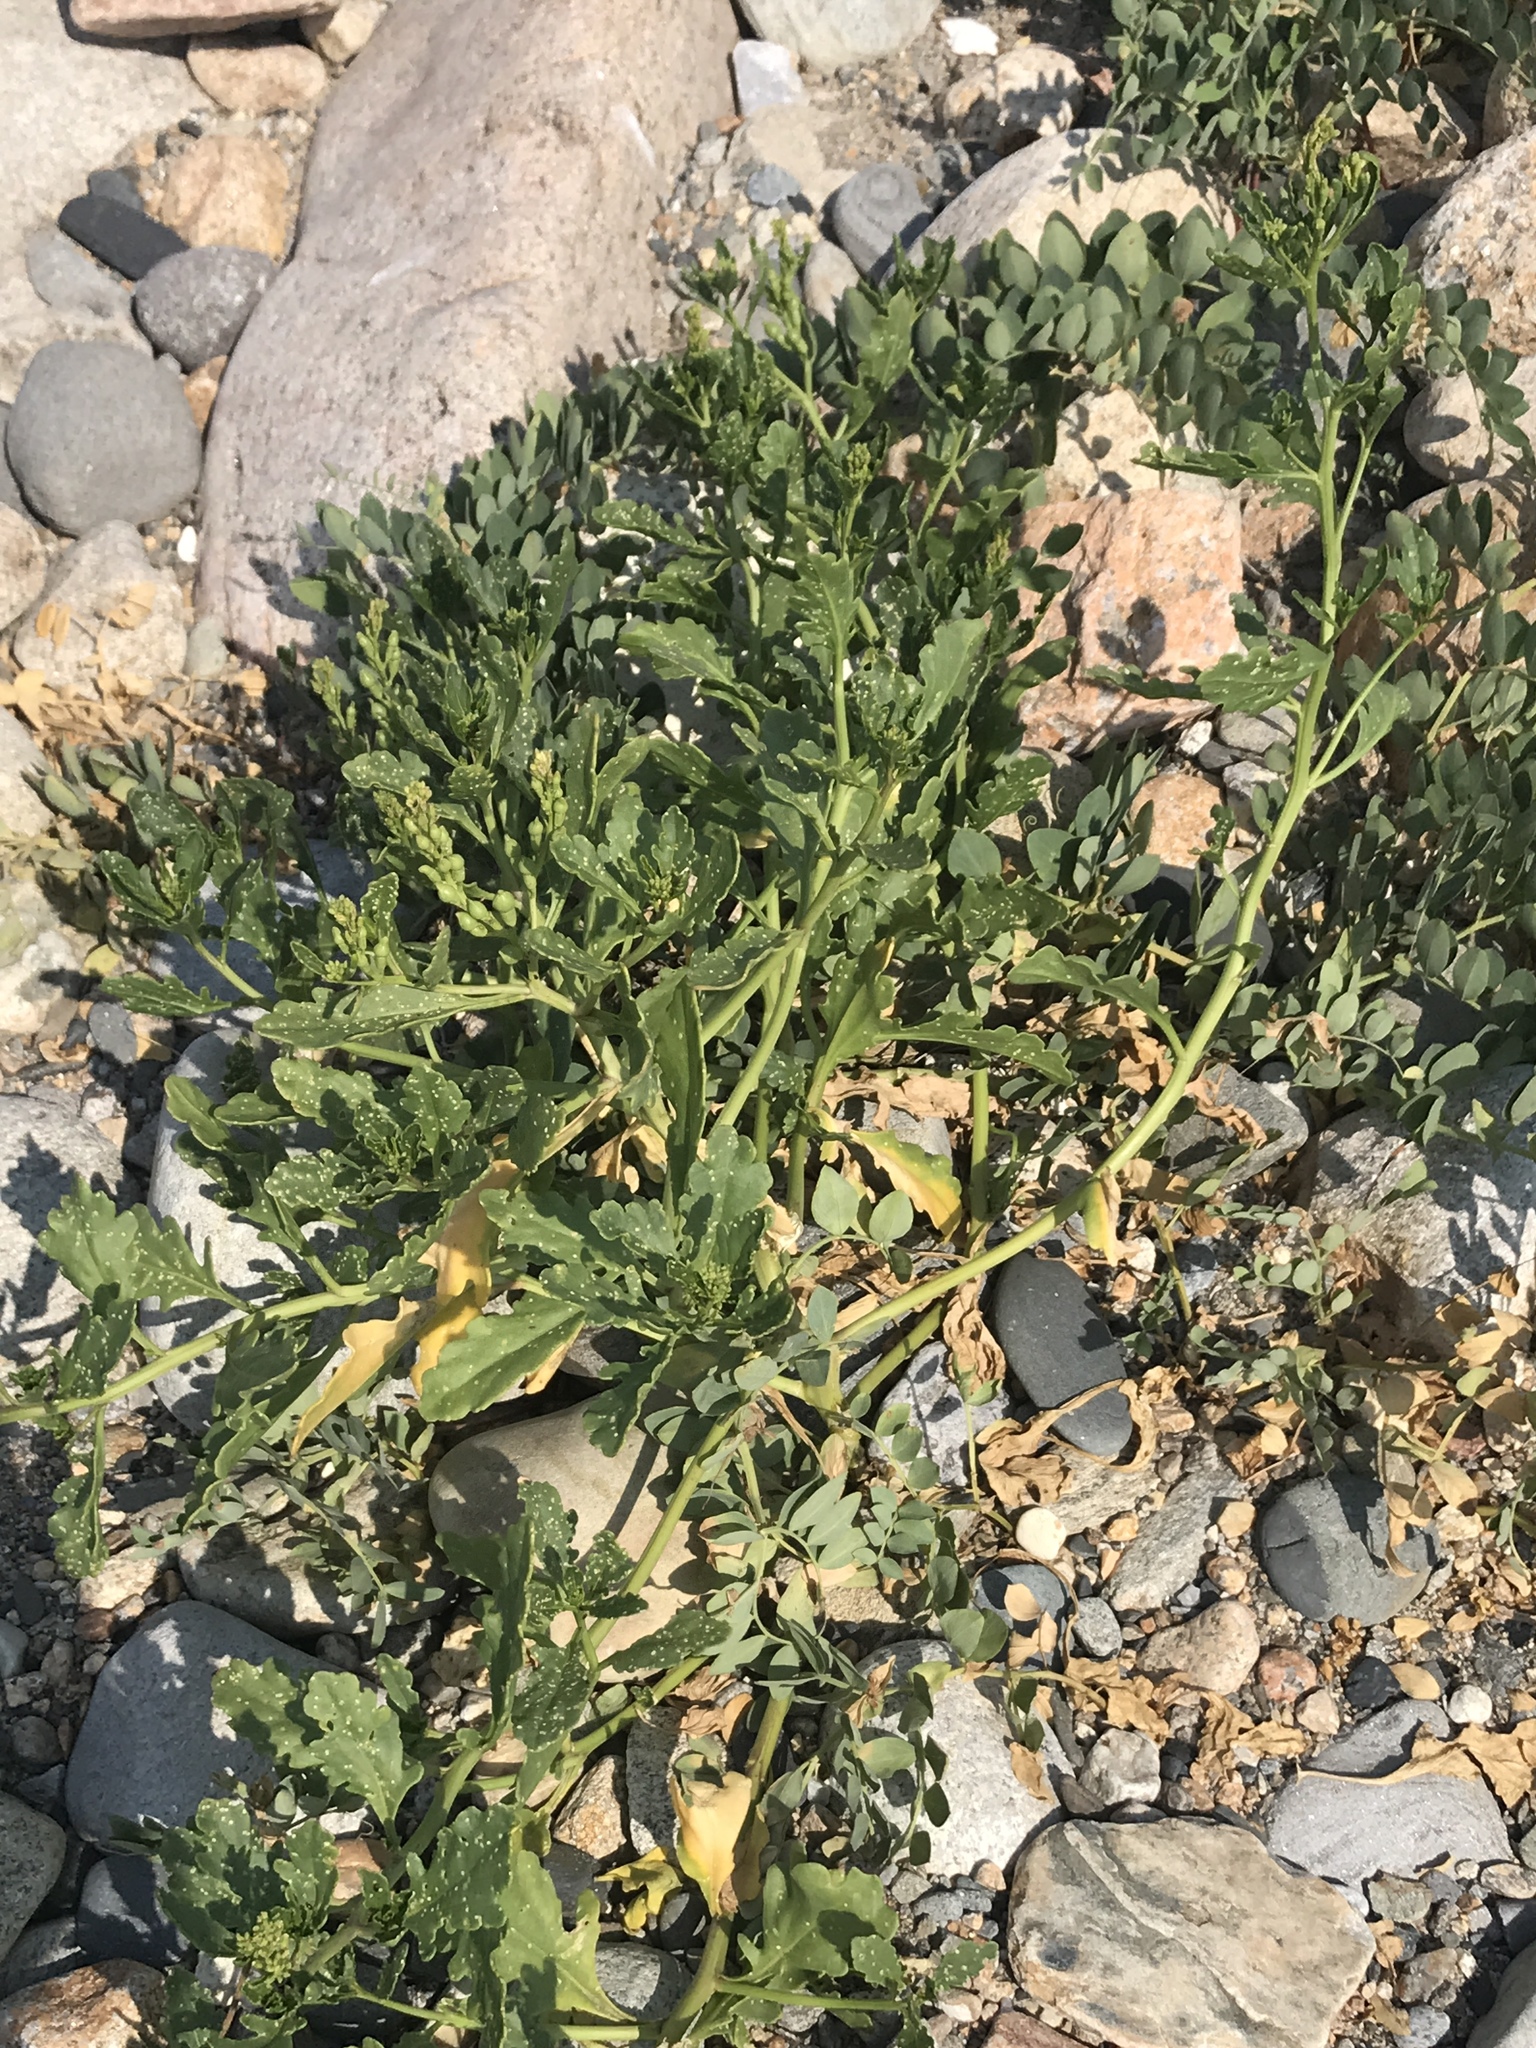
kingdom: Plantae
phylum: Tracheophyta
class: Magnoliopsida
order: Brassicales
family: Brassicaceae
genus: Cakile
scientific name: Cakile edentula
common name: American sea rocket
